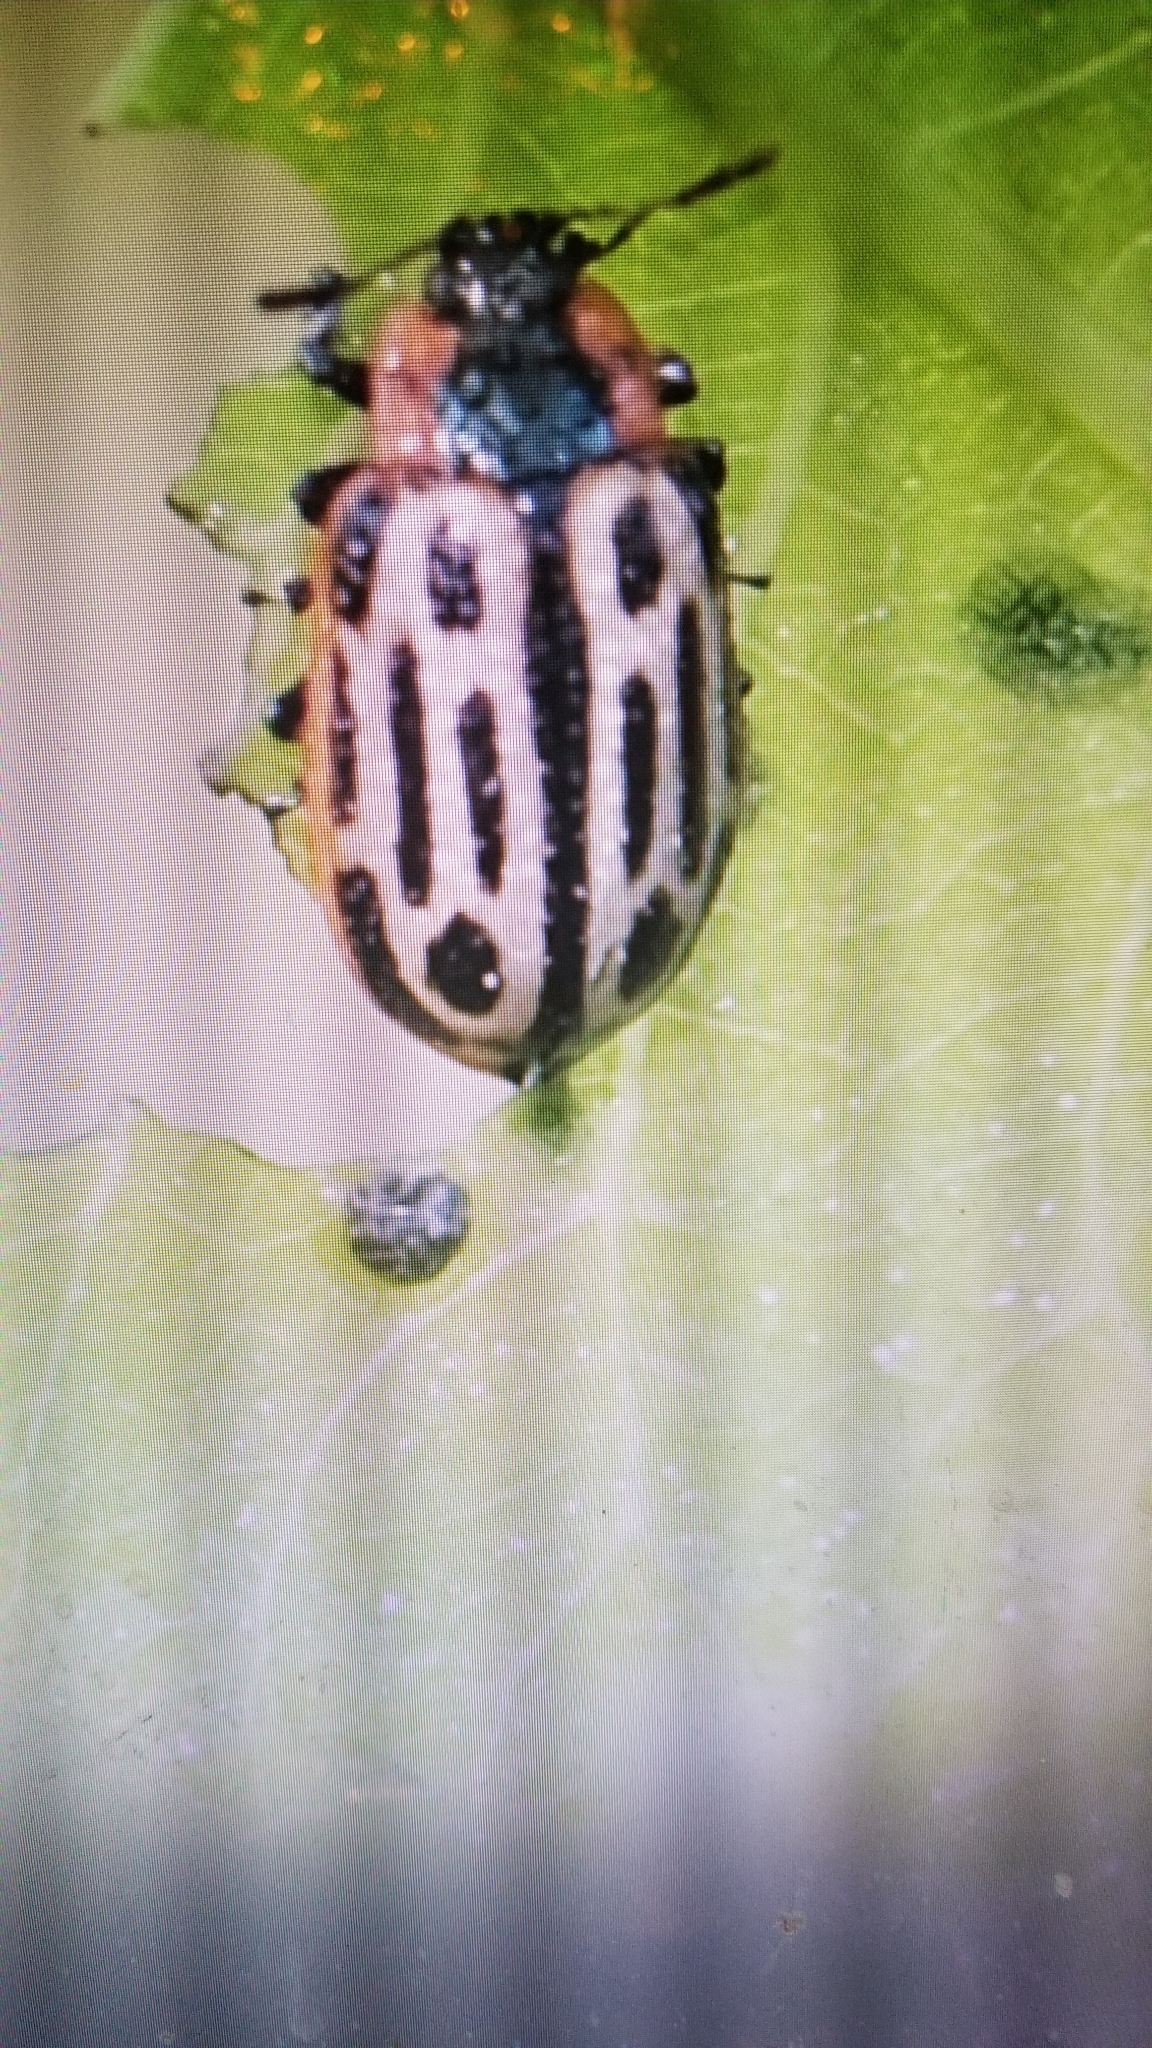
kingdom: Animalia
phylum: Arthropoda
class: Insecta
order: Coleoptera
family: Chrysomelidae
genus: Aethiopocassis
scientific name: Aethiopocassis scripta
